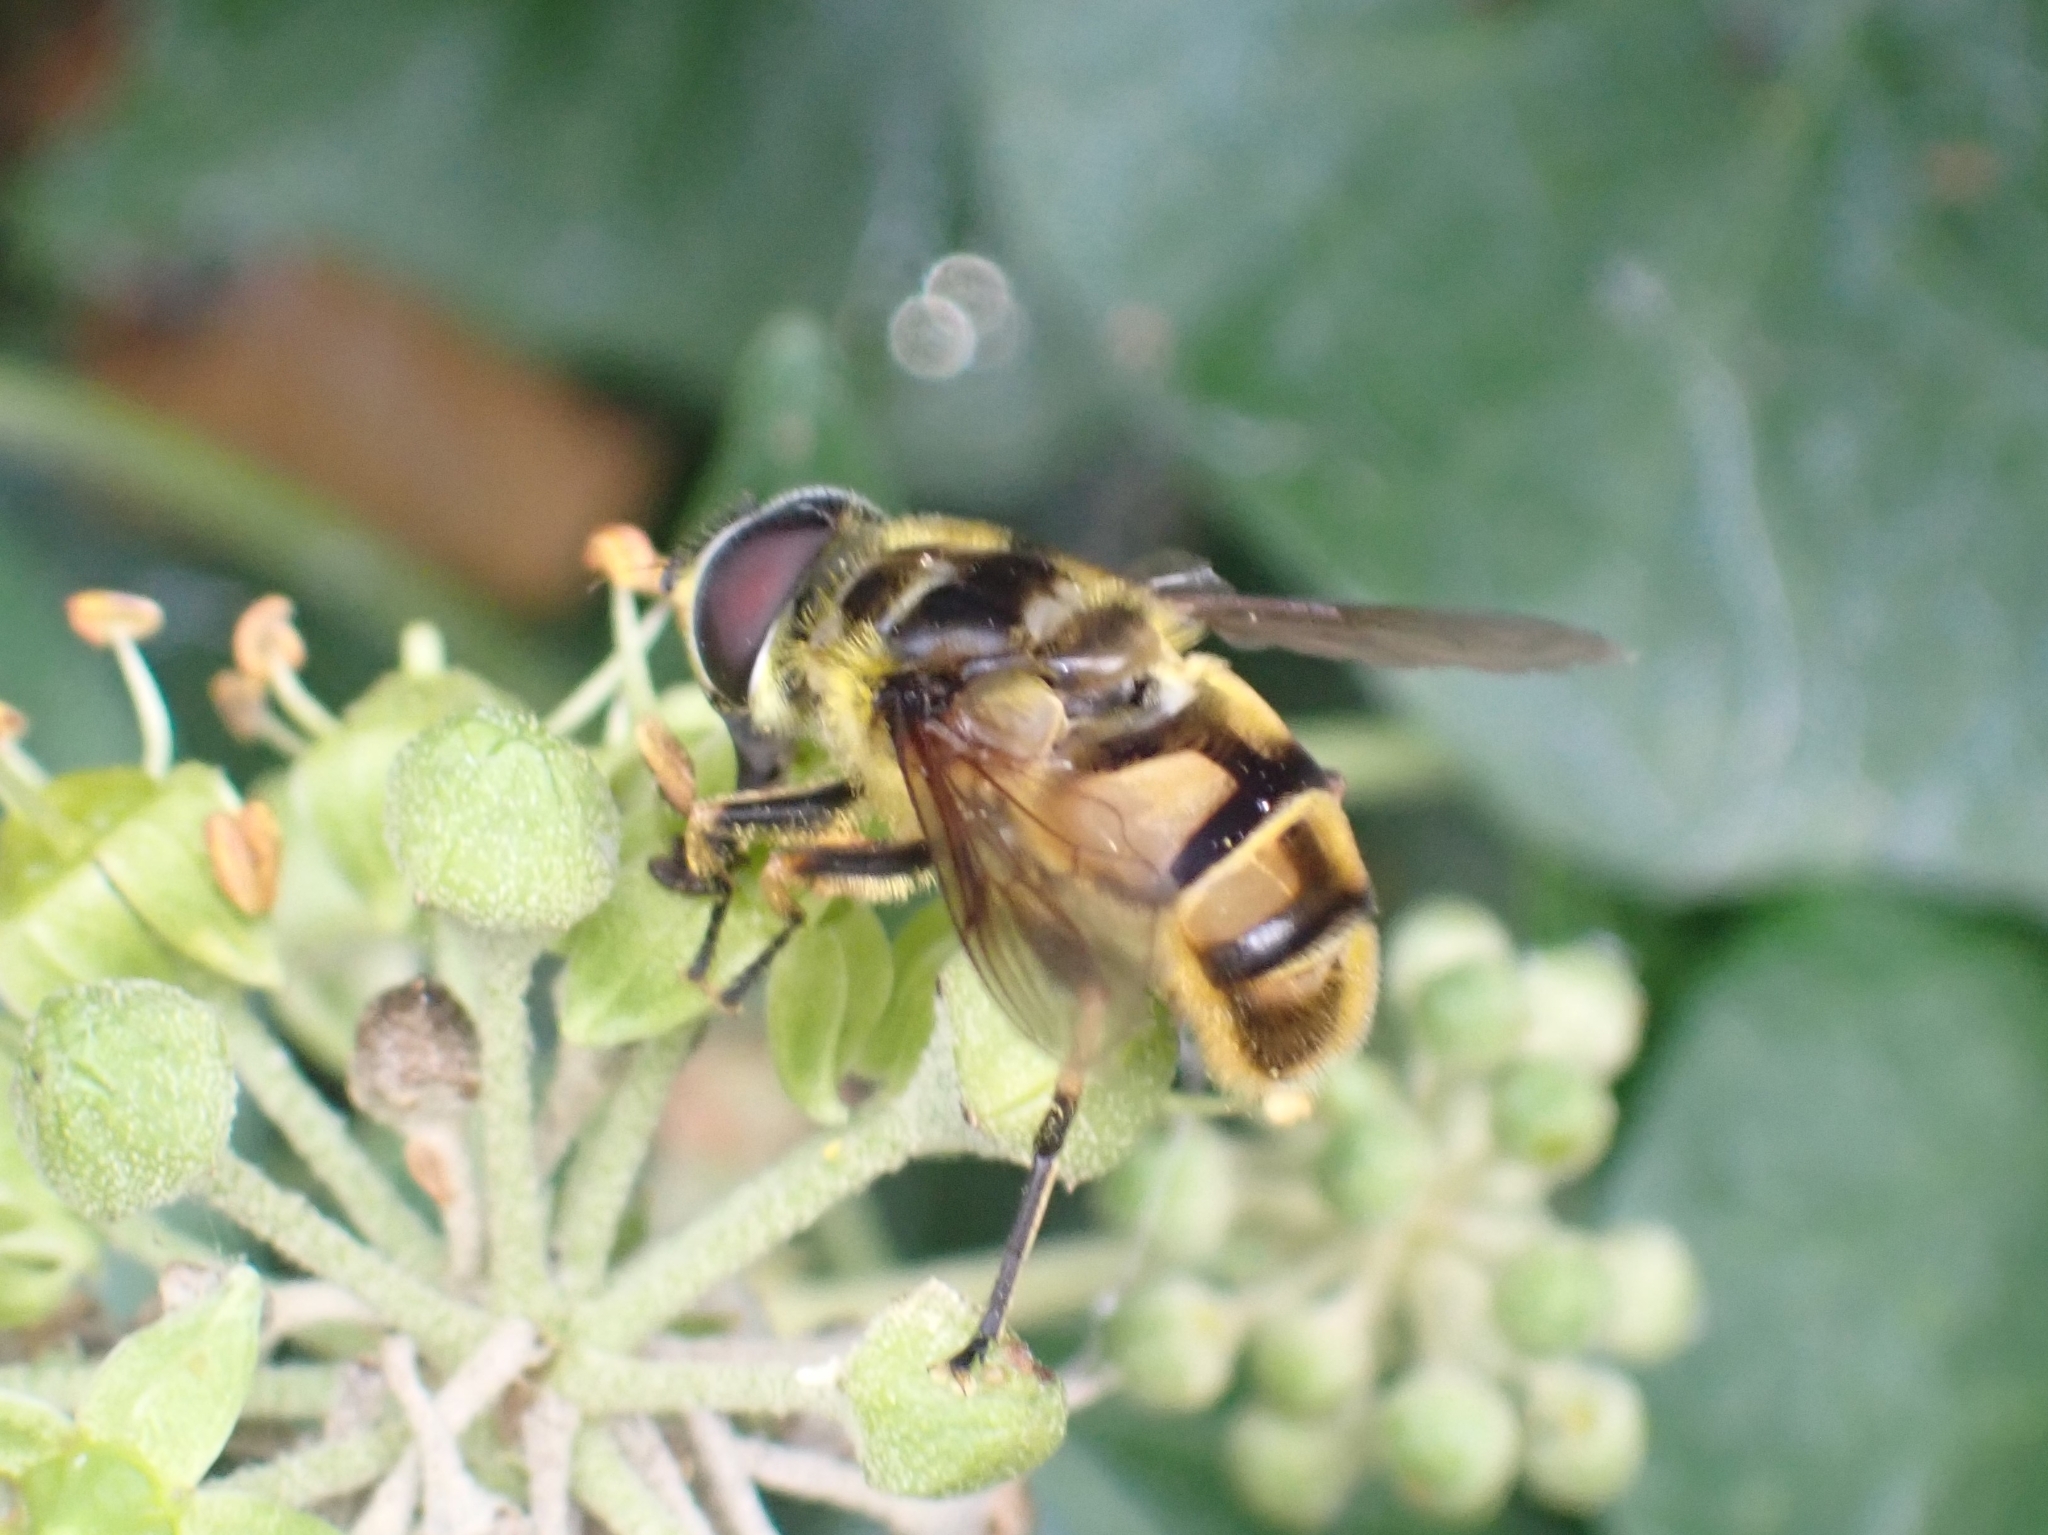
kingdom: Animalia
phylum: Arthropoda
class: Insecta
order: Diptera
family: Syrphidae
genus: Myathropa
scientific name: Myathropa florea
